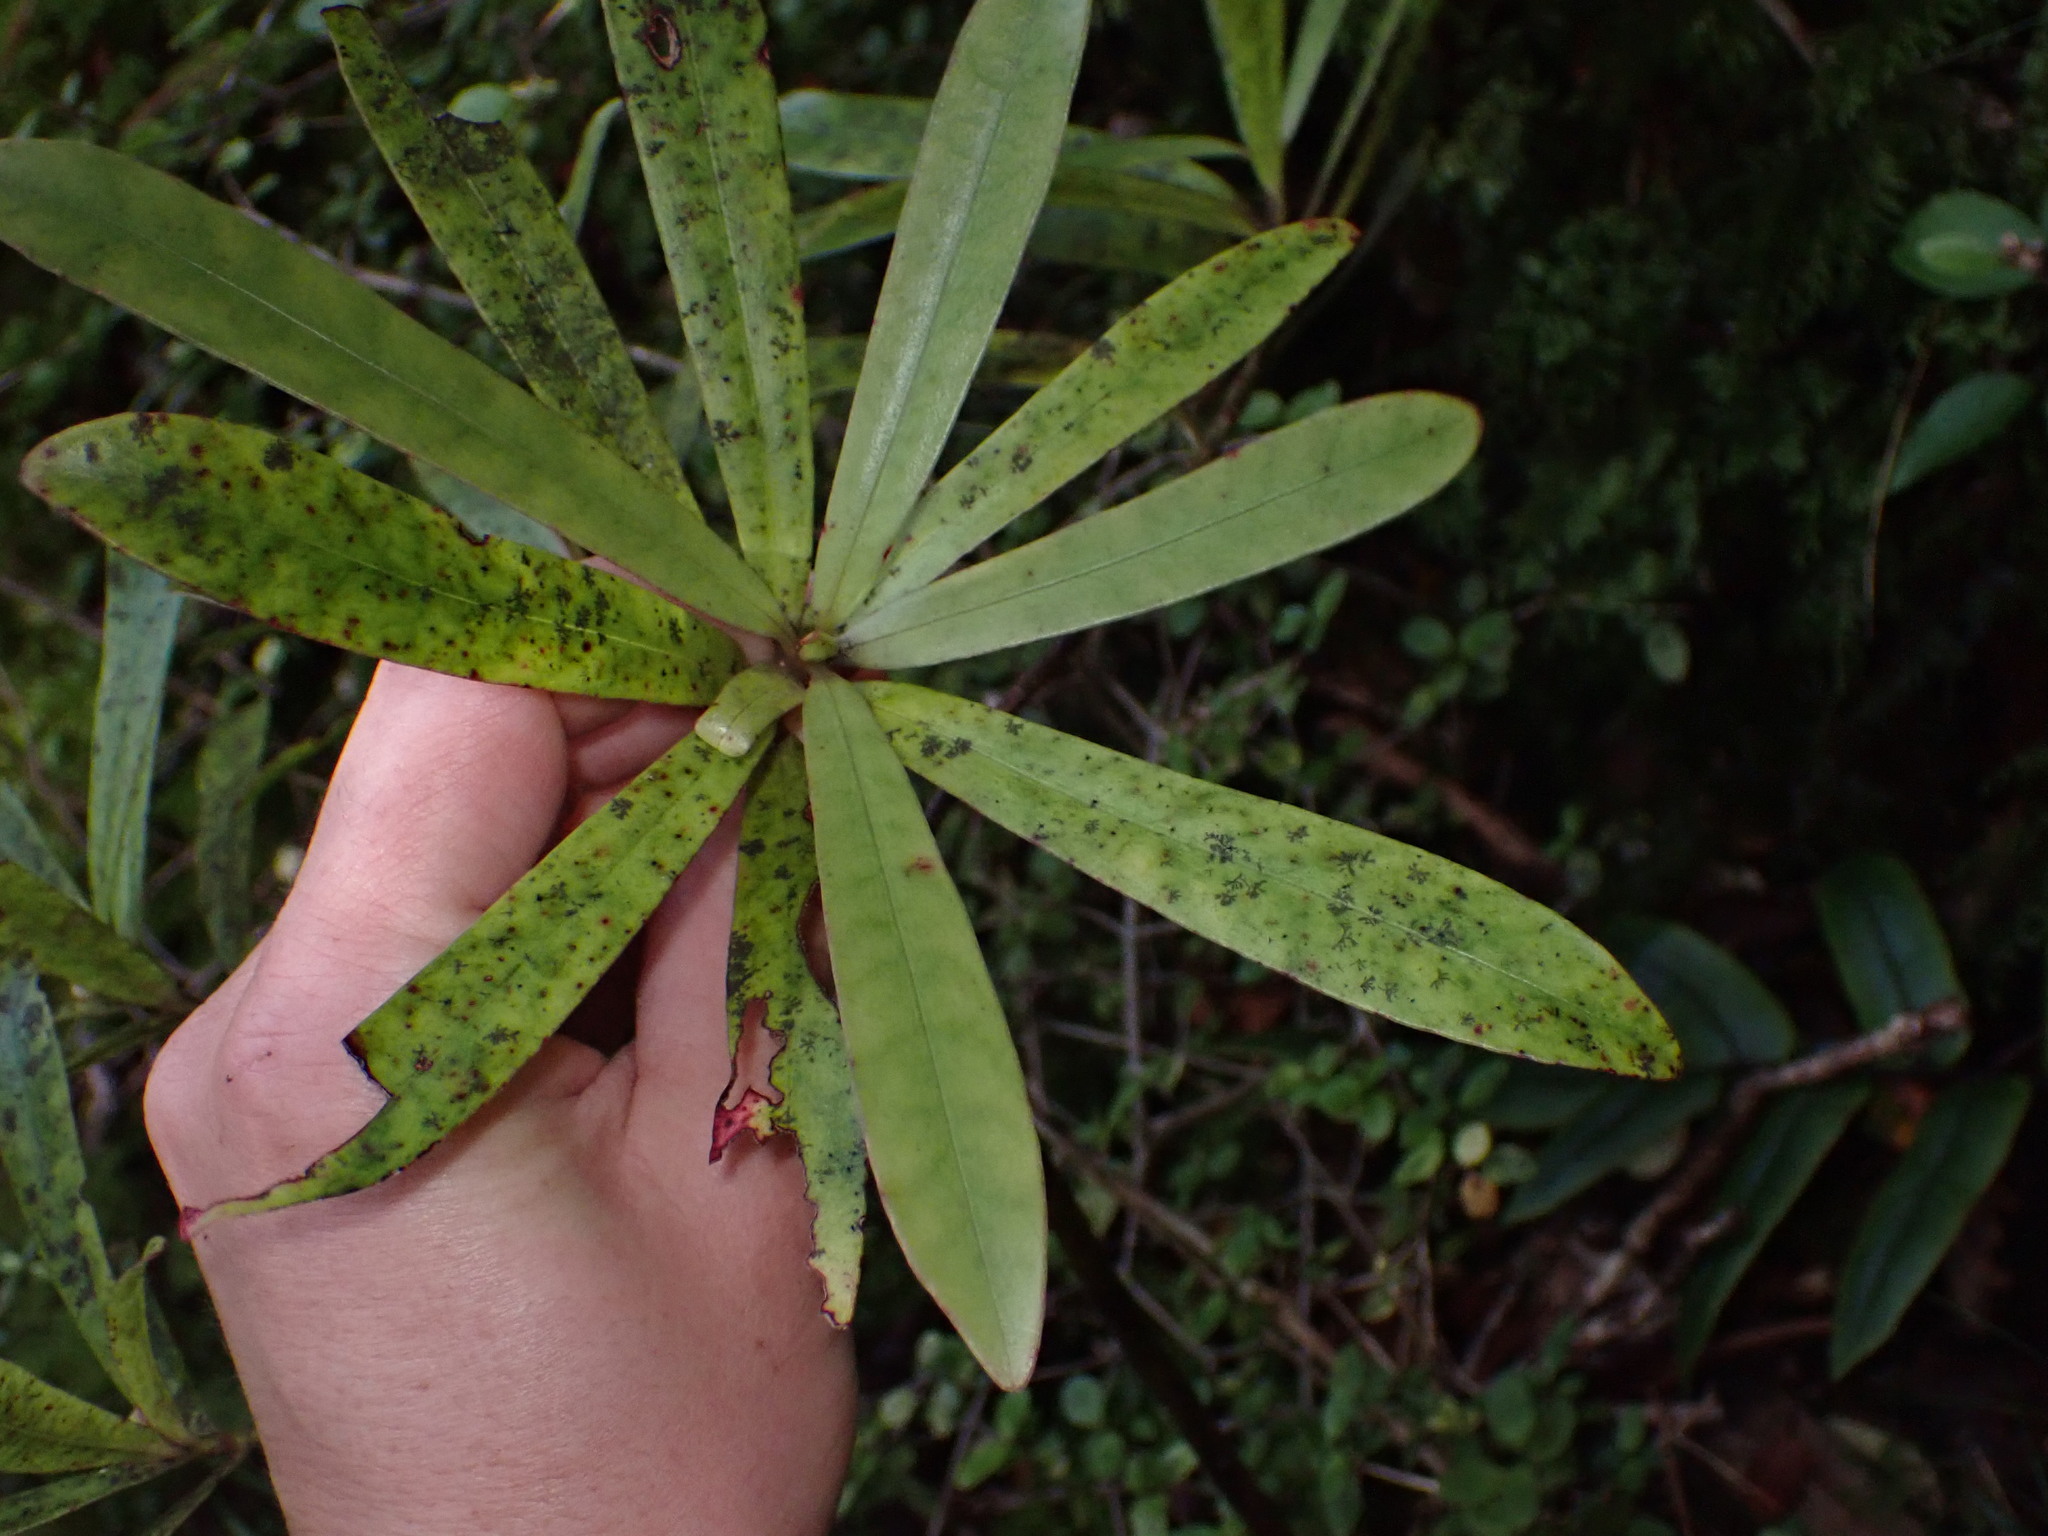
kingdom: Plantae
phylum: Tracheophyta
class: Magnoliopsida
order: Ericales
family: Primulaceae
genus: Myrsine
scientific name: Myrsine salicina
